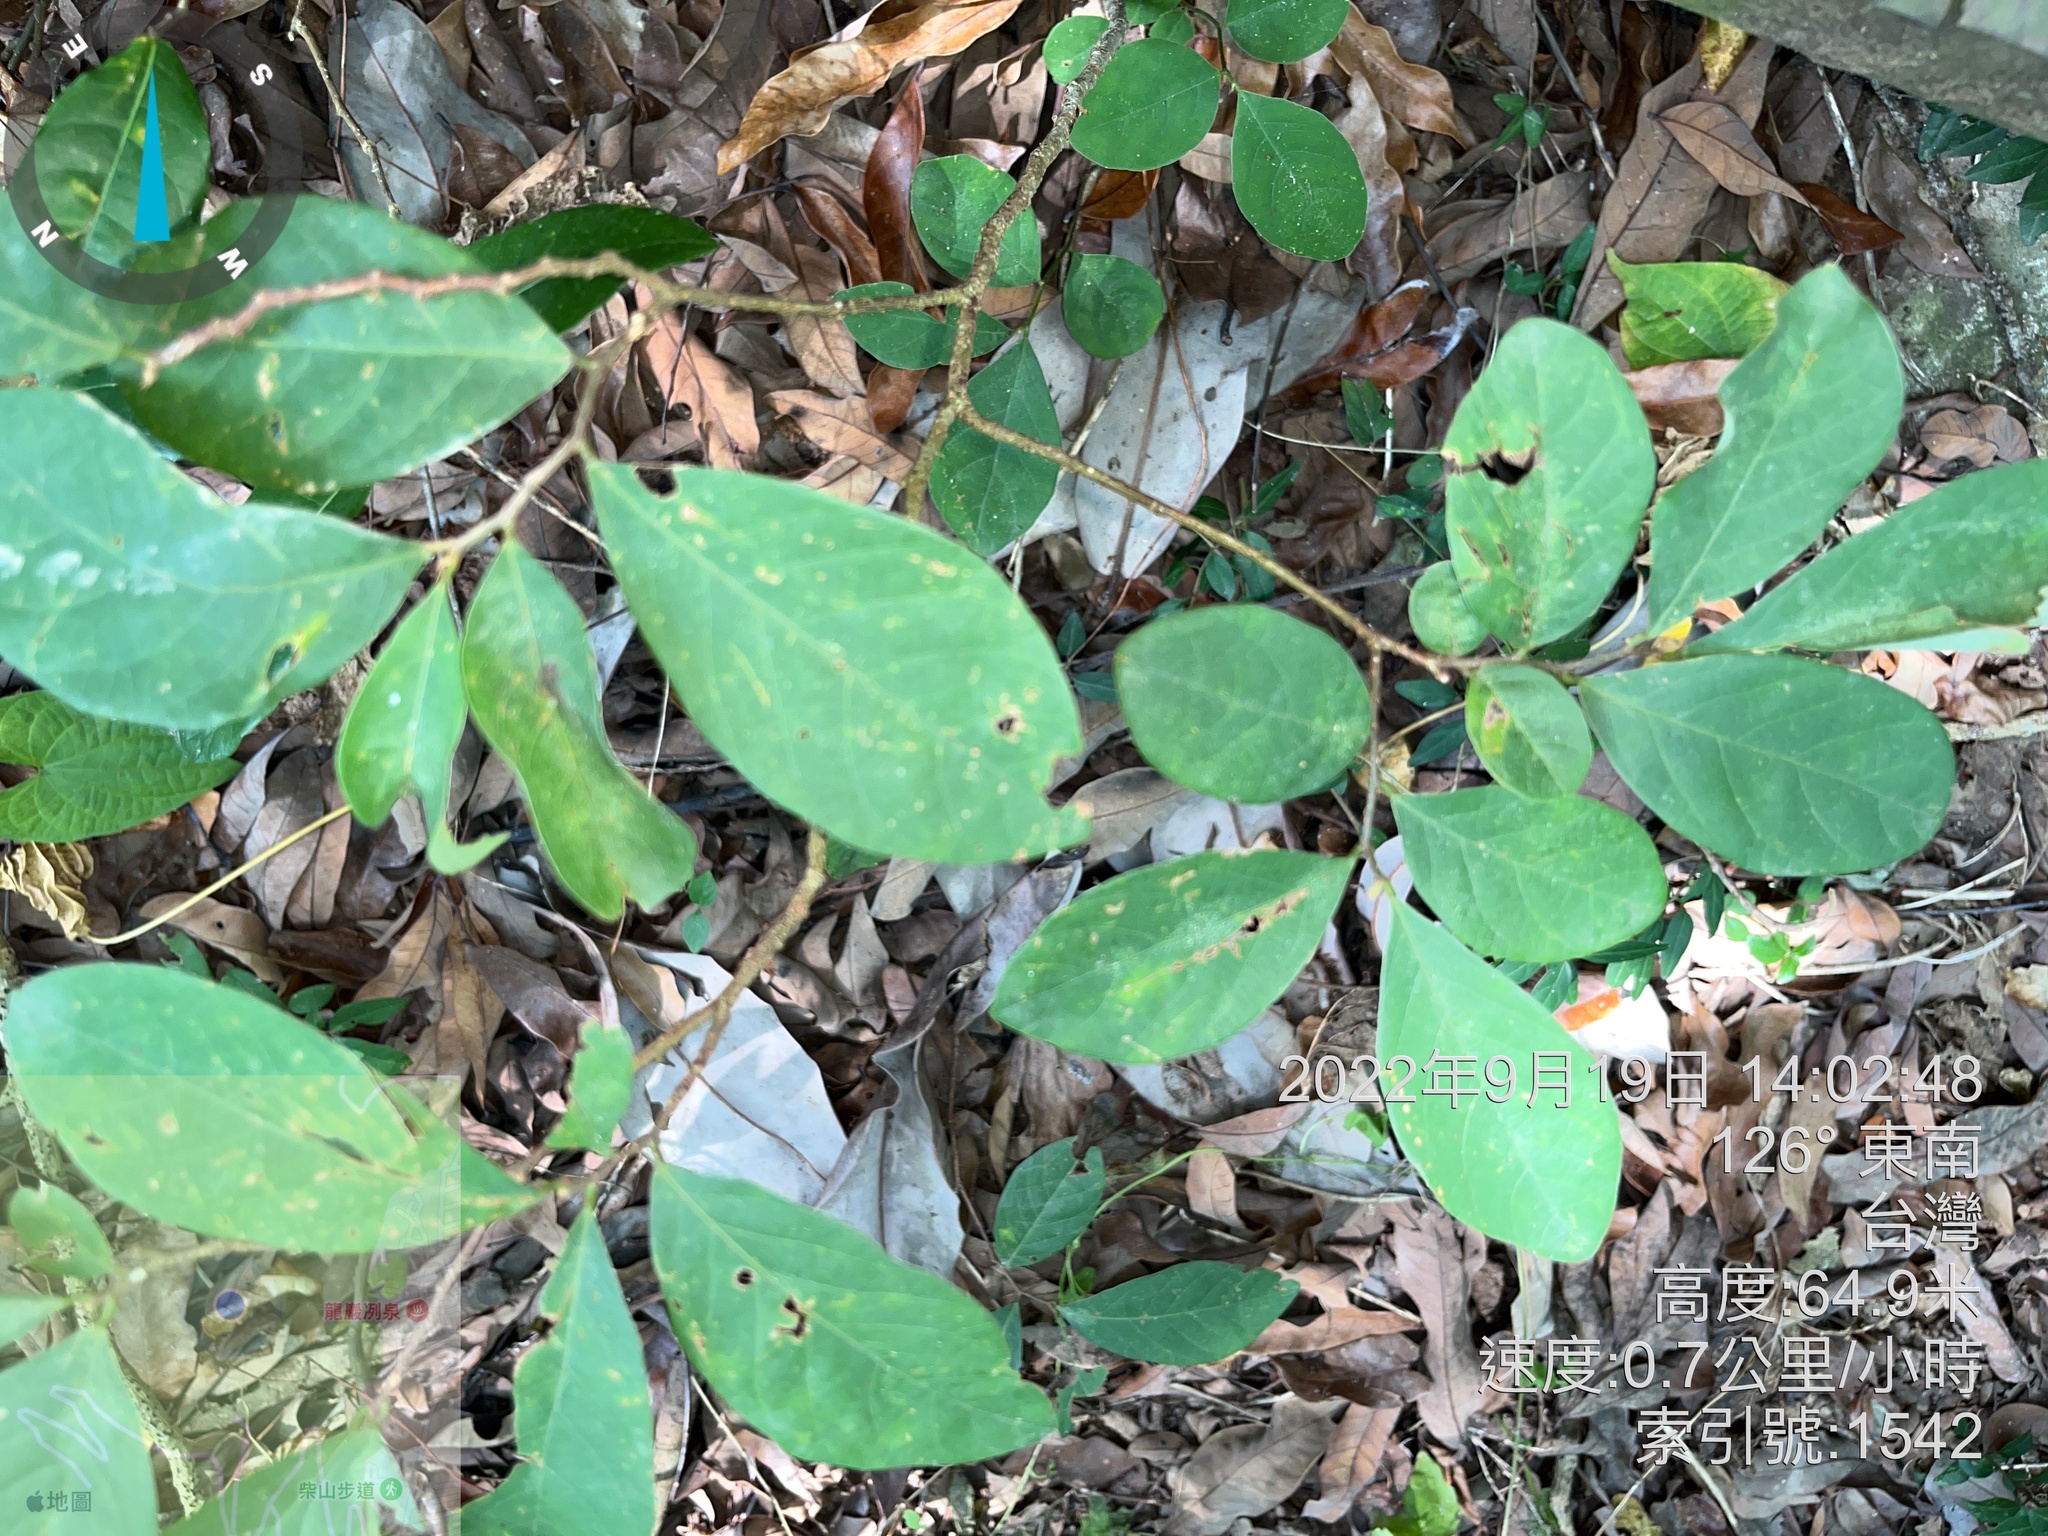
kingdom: Plantae
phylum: Tracheophyta
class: Magnoliopsida
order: Malpighiales
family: Phyllanthaceae
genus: Bridelia
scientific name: Bridelia tomentosa
